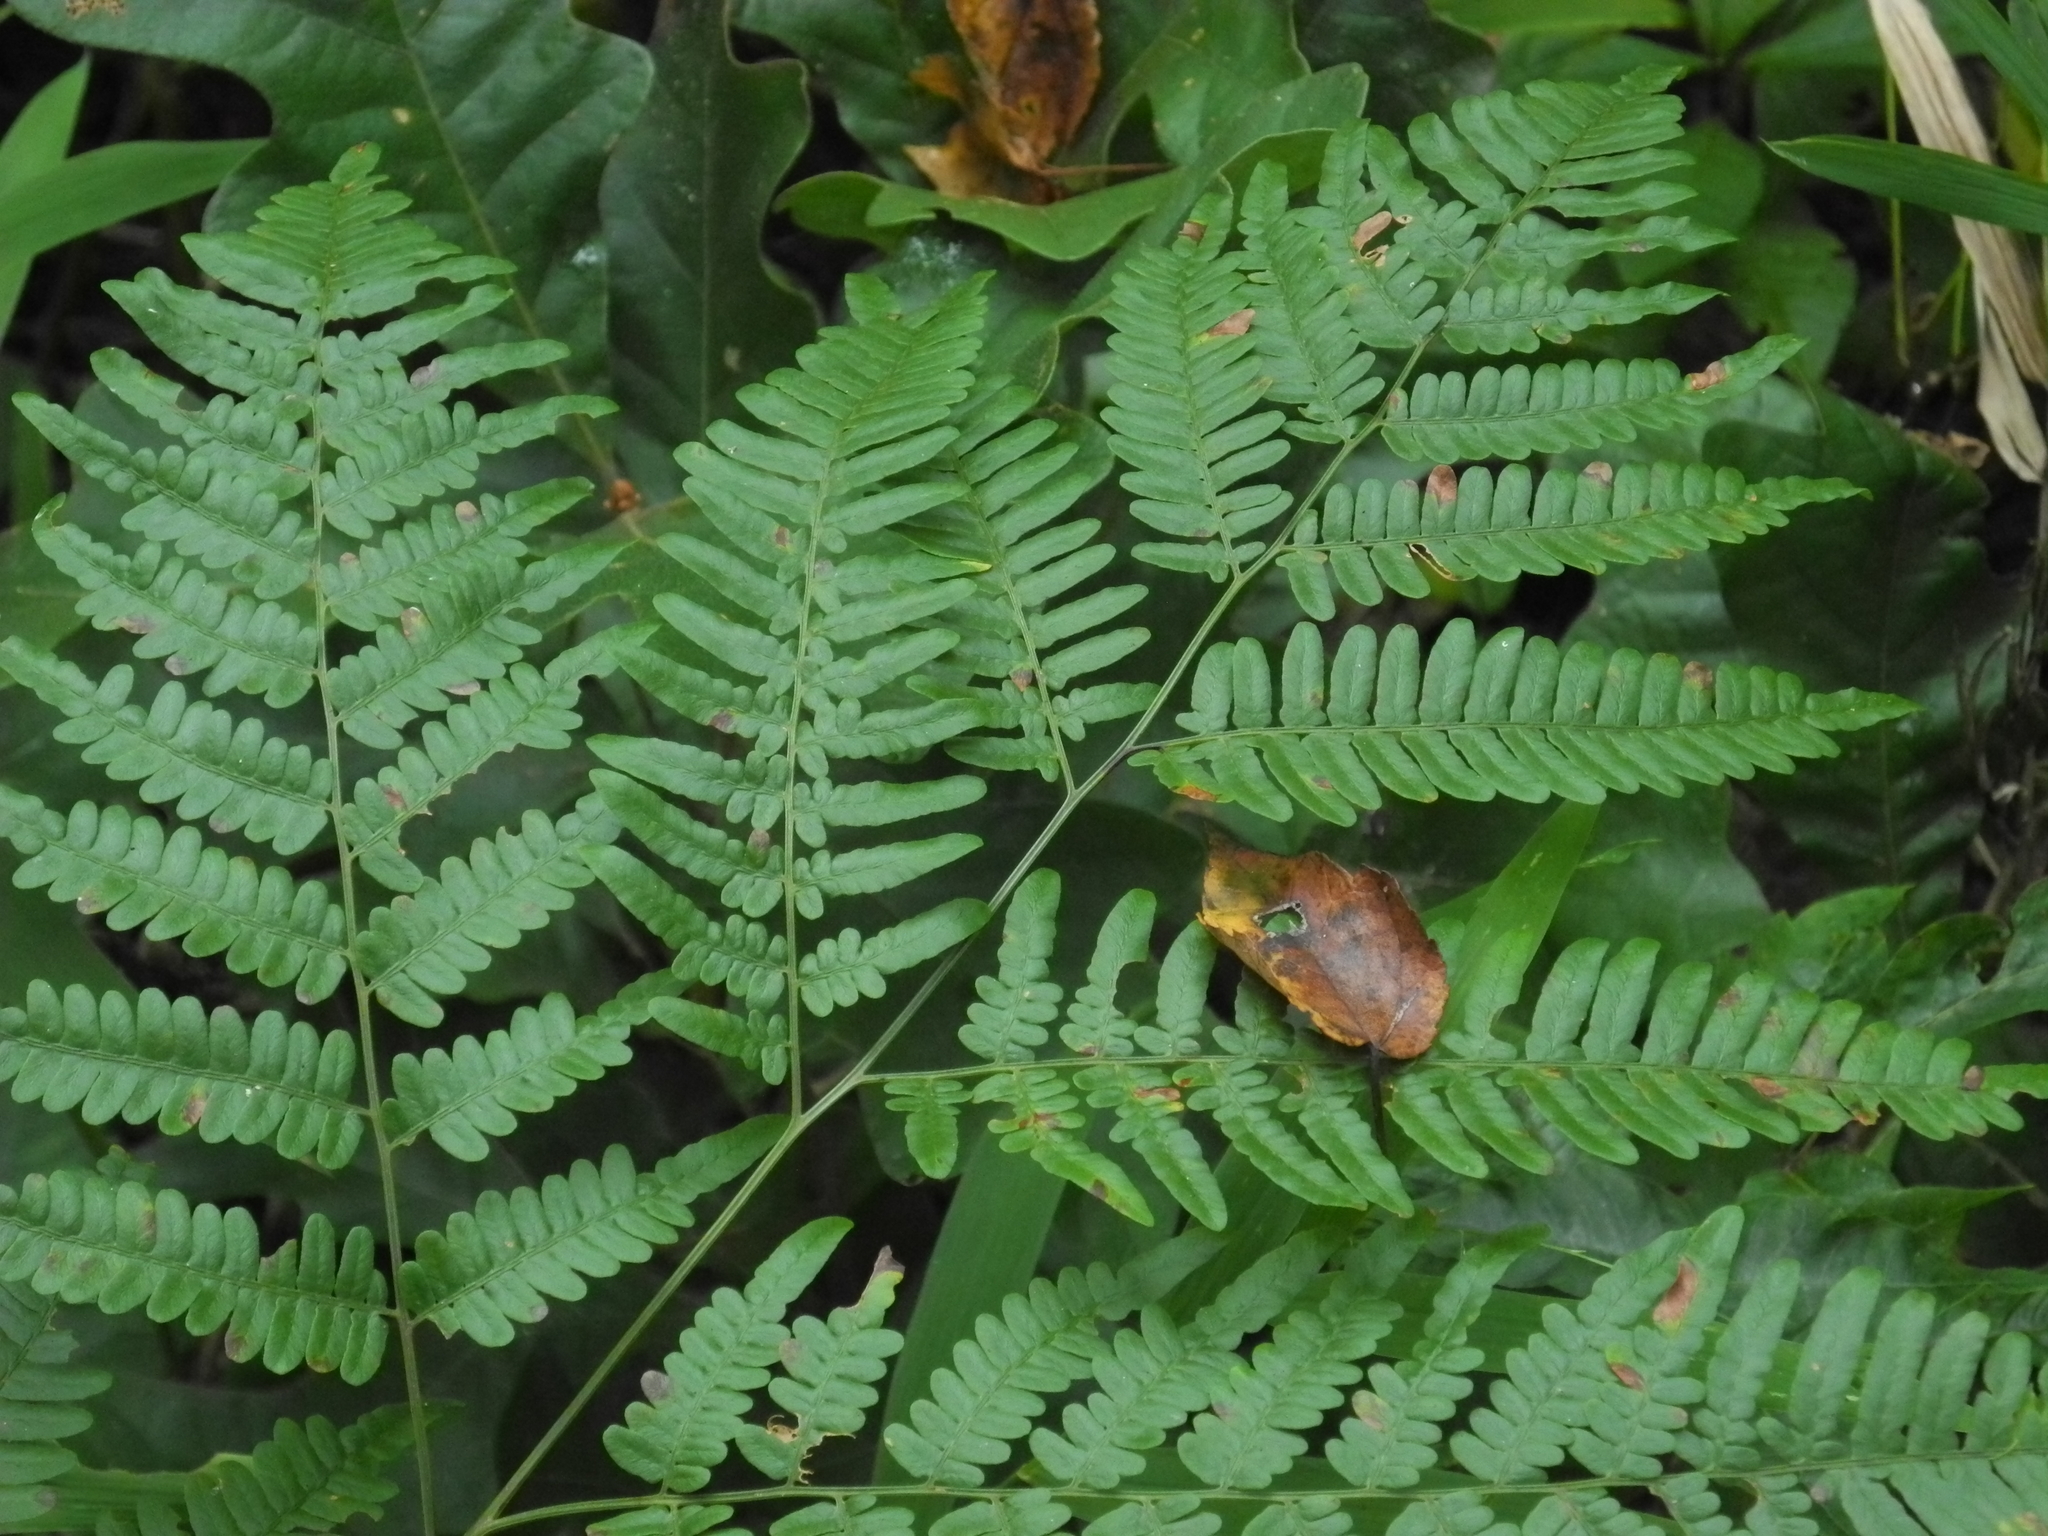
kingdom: Plantae
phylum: Tracheophyta
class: Polypodiopsida
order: Polypodiales
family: Dennstaedtiaceae
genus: Pteridium
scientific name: Pteridium aquilinum
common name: Bracken
